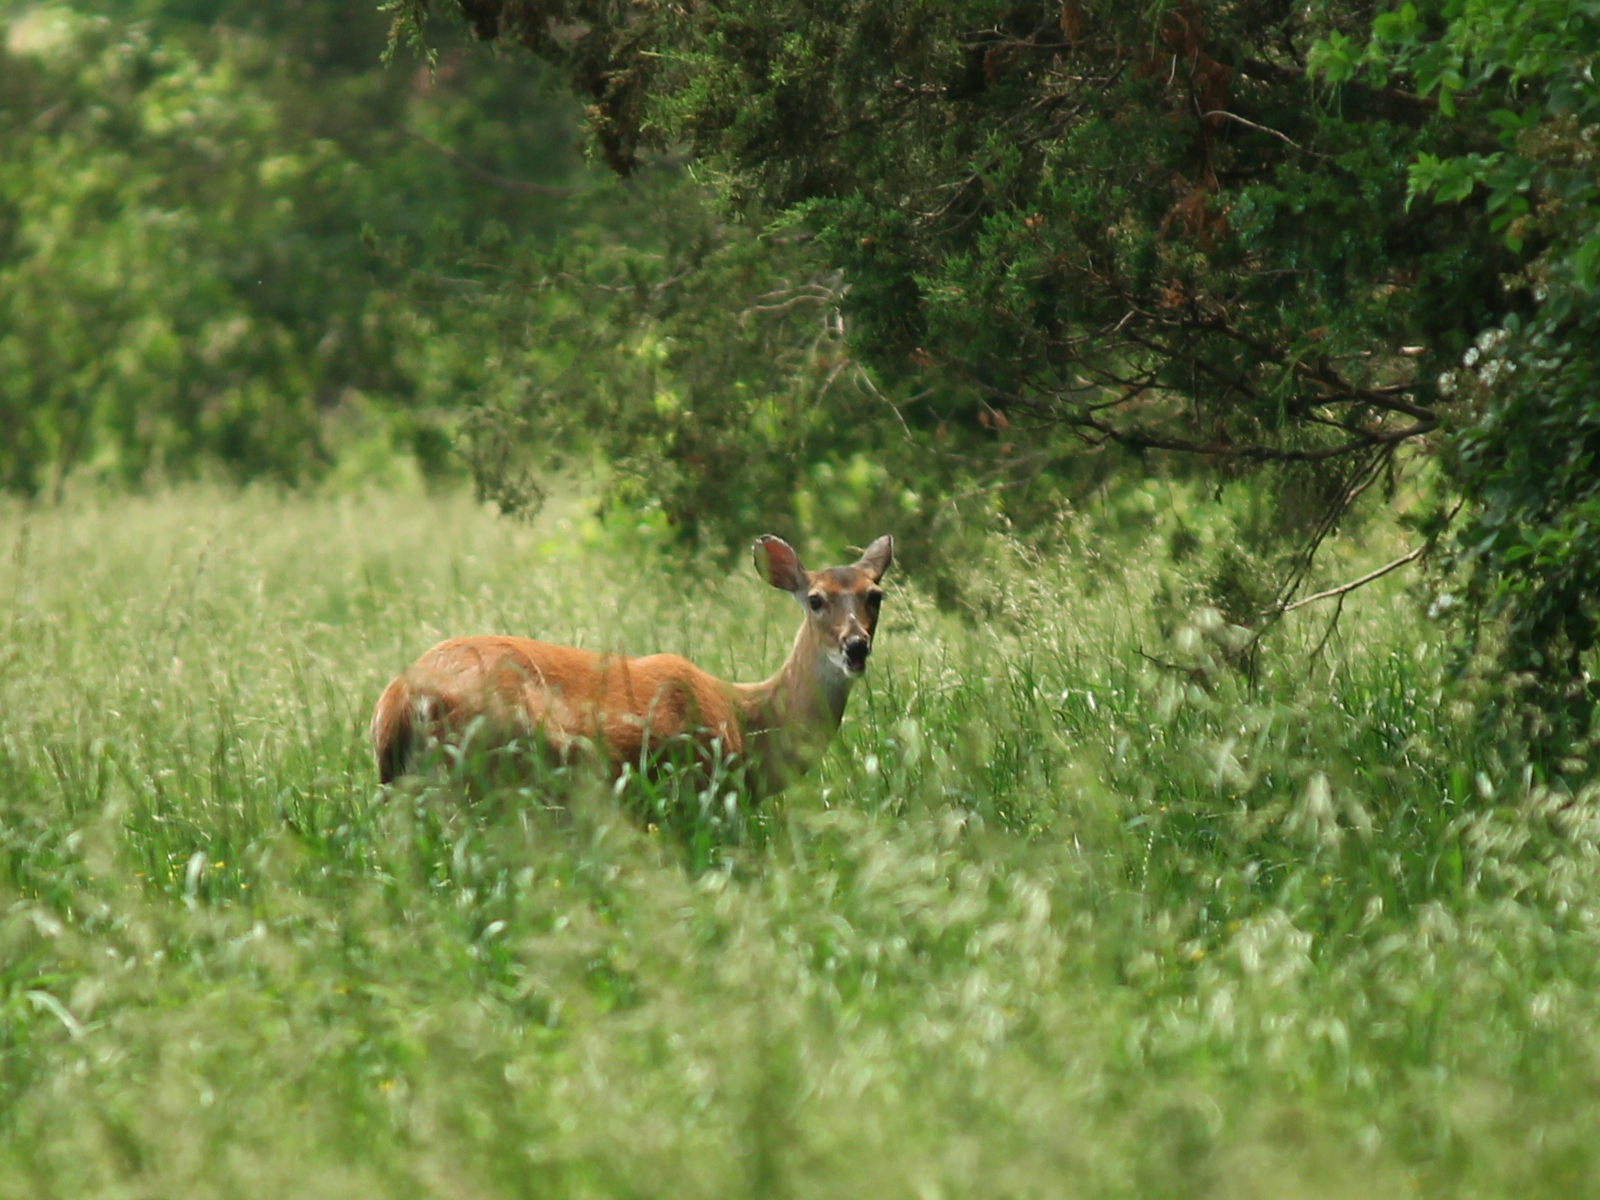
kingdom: Animalia
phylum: Chordata
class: Mammalia
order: Artiodactyla
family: Cervidae
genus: Odocoileus
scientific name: Odocoileus virginianus
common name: White-tailed deer
